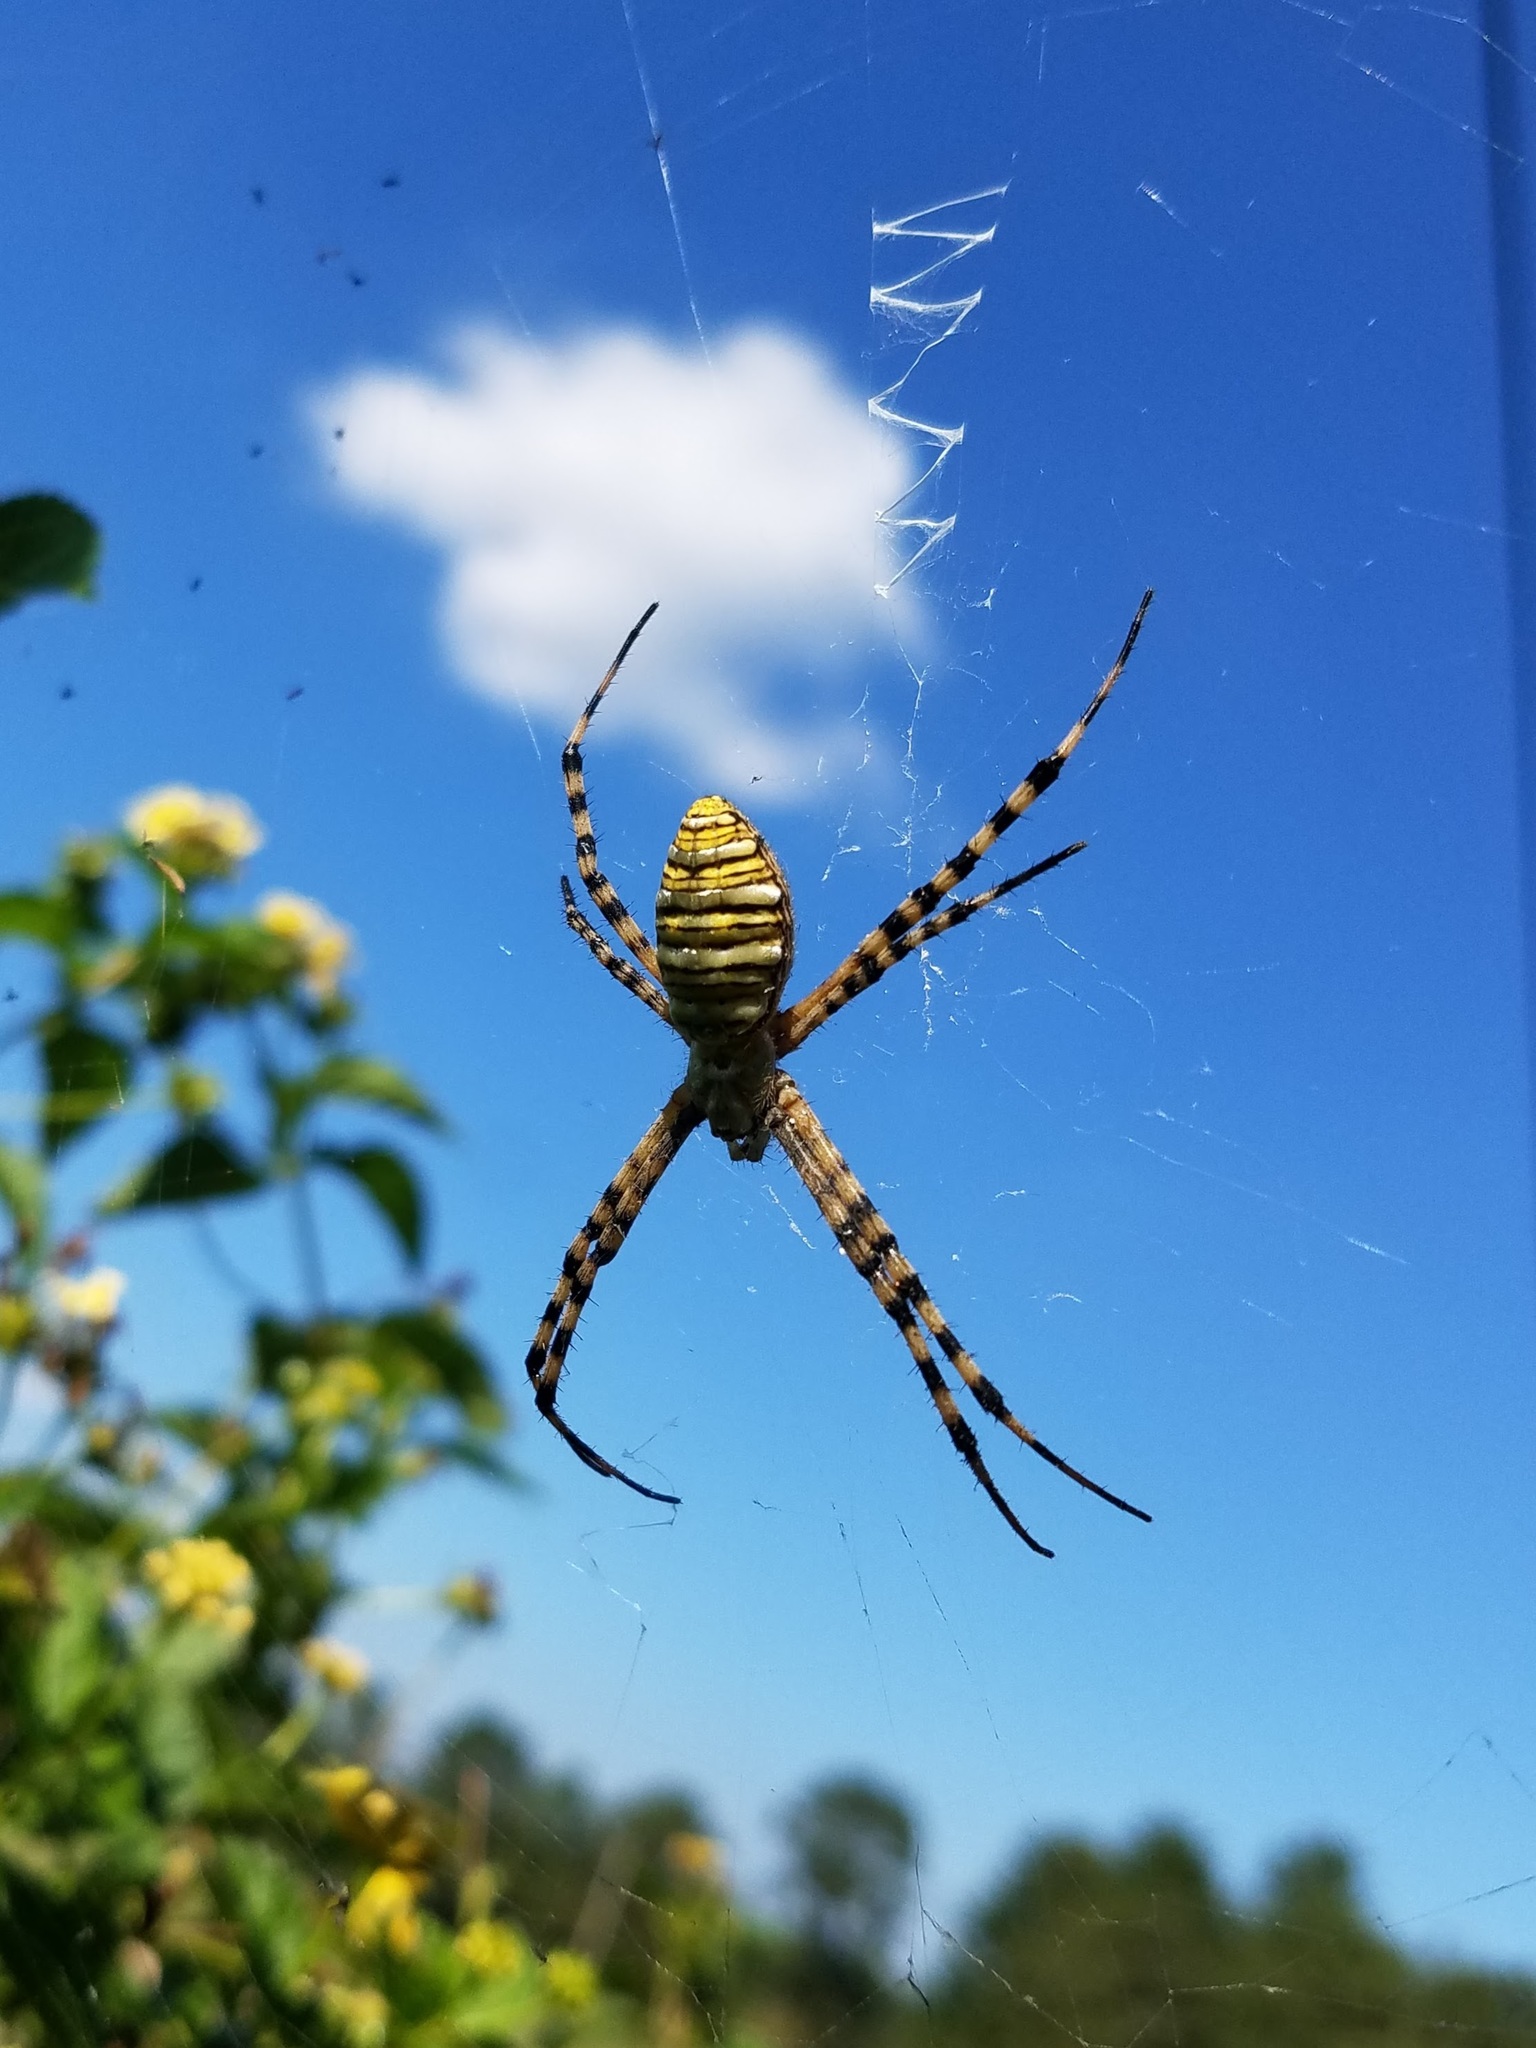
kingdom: Animalia
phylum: Arthropoda
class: Arachnida
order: Araneae
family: Araneidae
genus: Argiope
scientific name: Argiope trifasciata
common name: Banded garden spider
